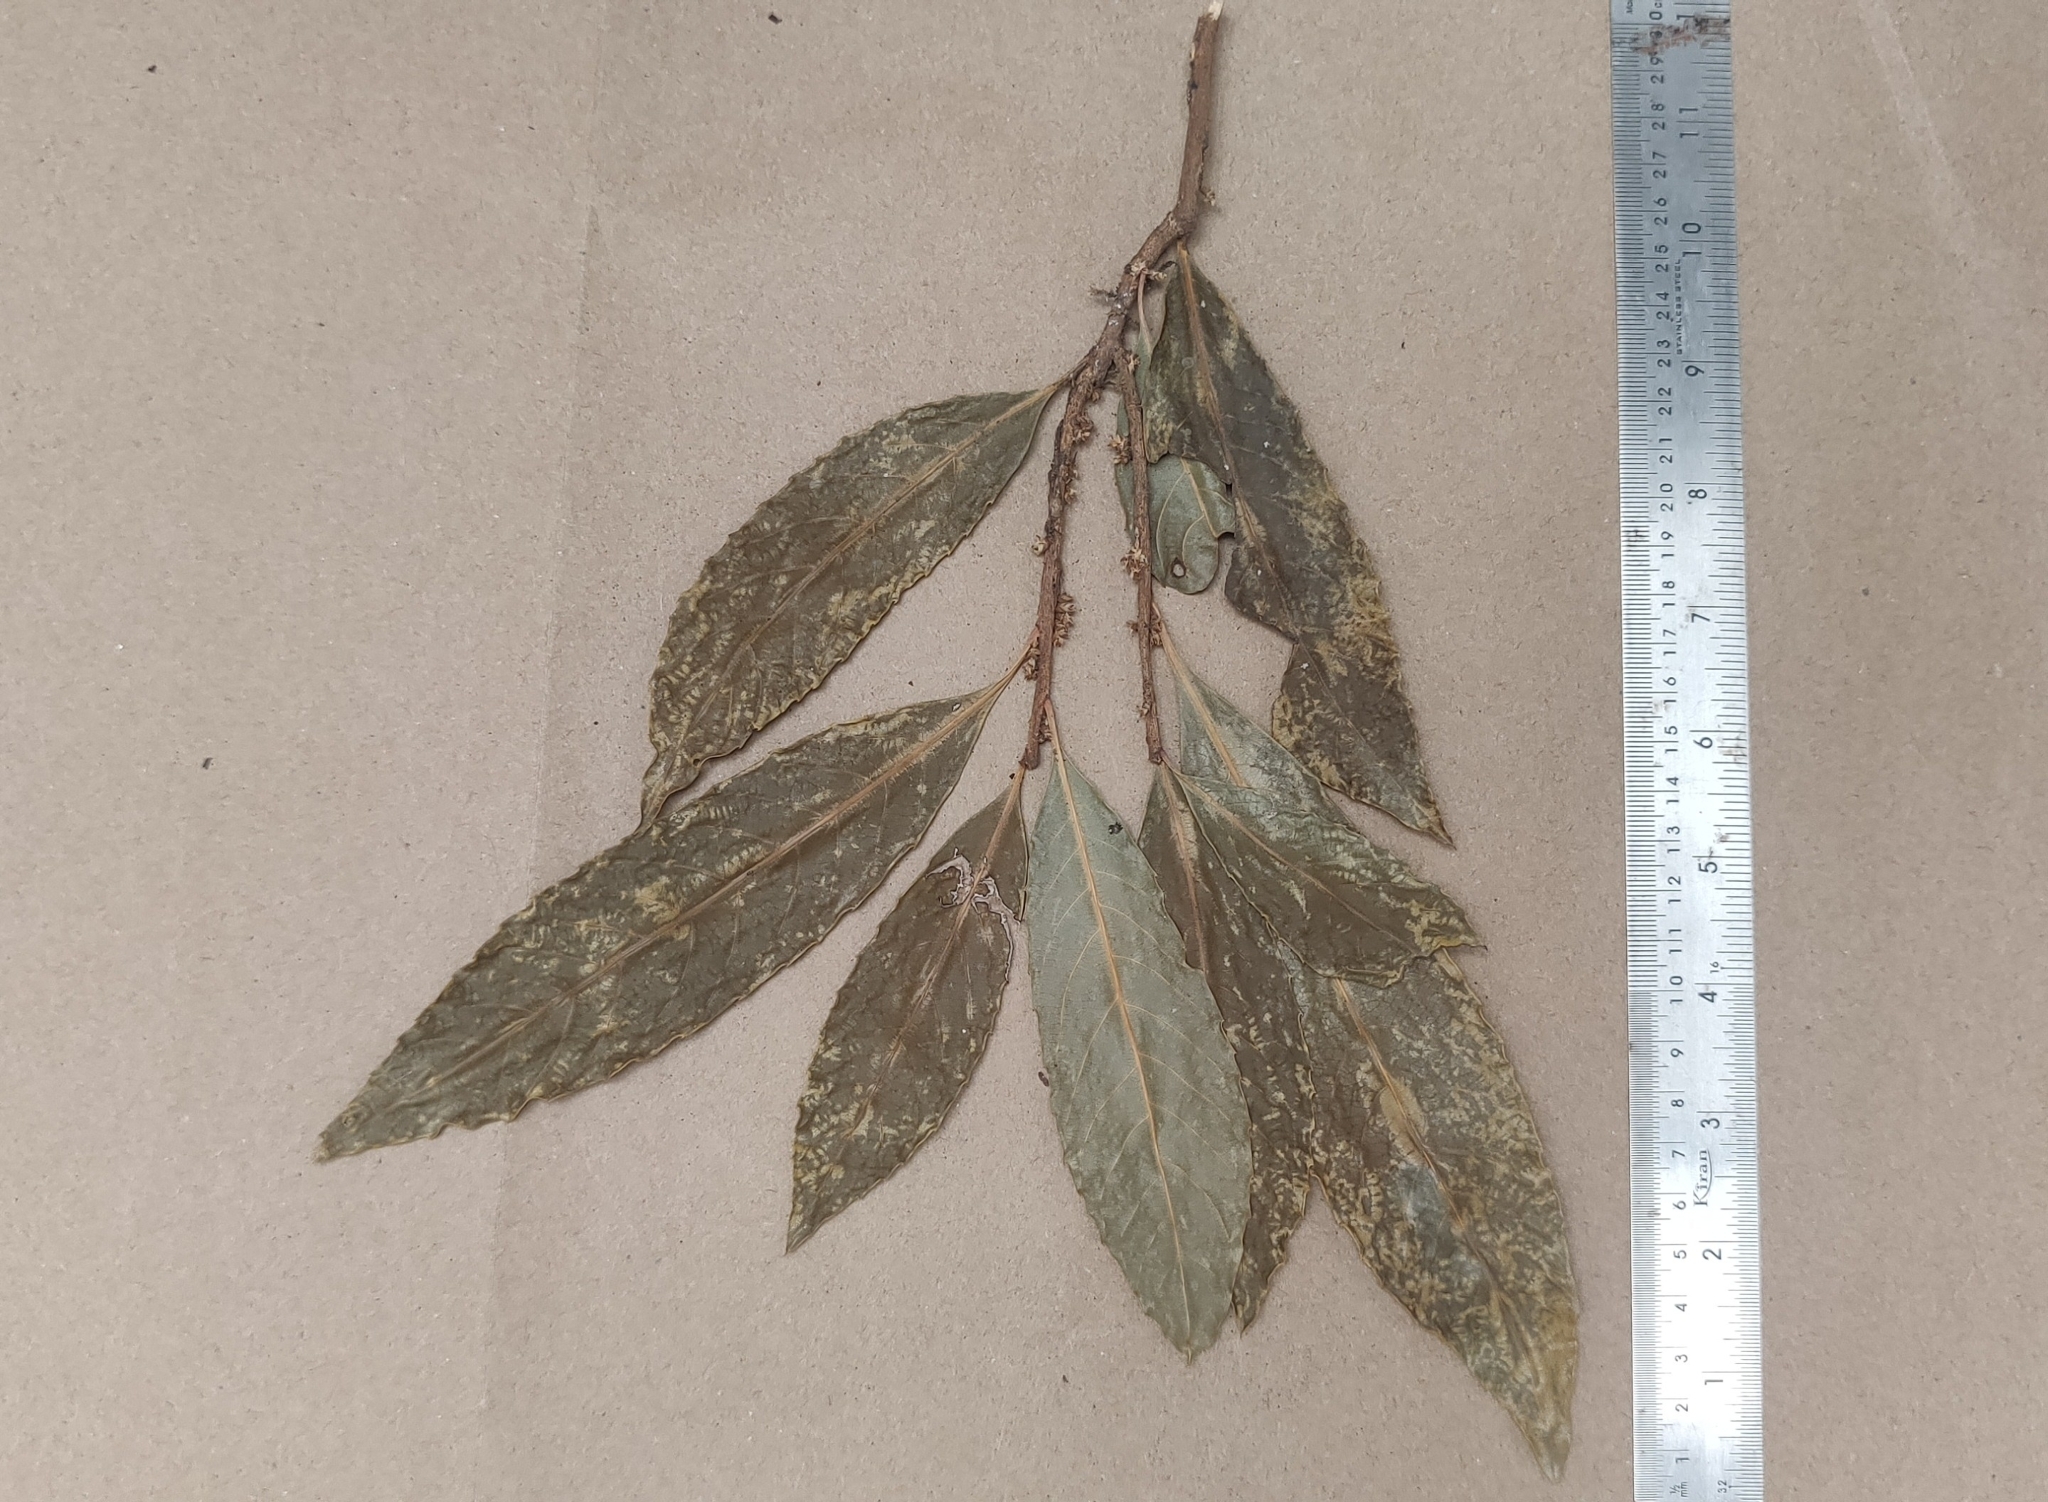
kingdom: Plantae
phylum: Tracheophyta
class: Magnoliopsida
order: Malpighiales
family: Euphorbiaceae
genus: Agrostistachys
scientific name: Agrostistachys indica
